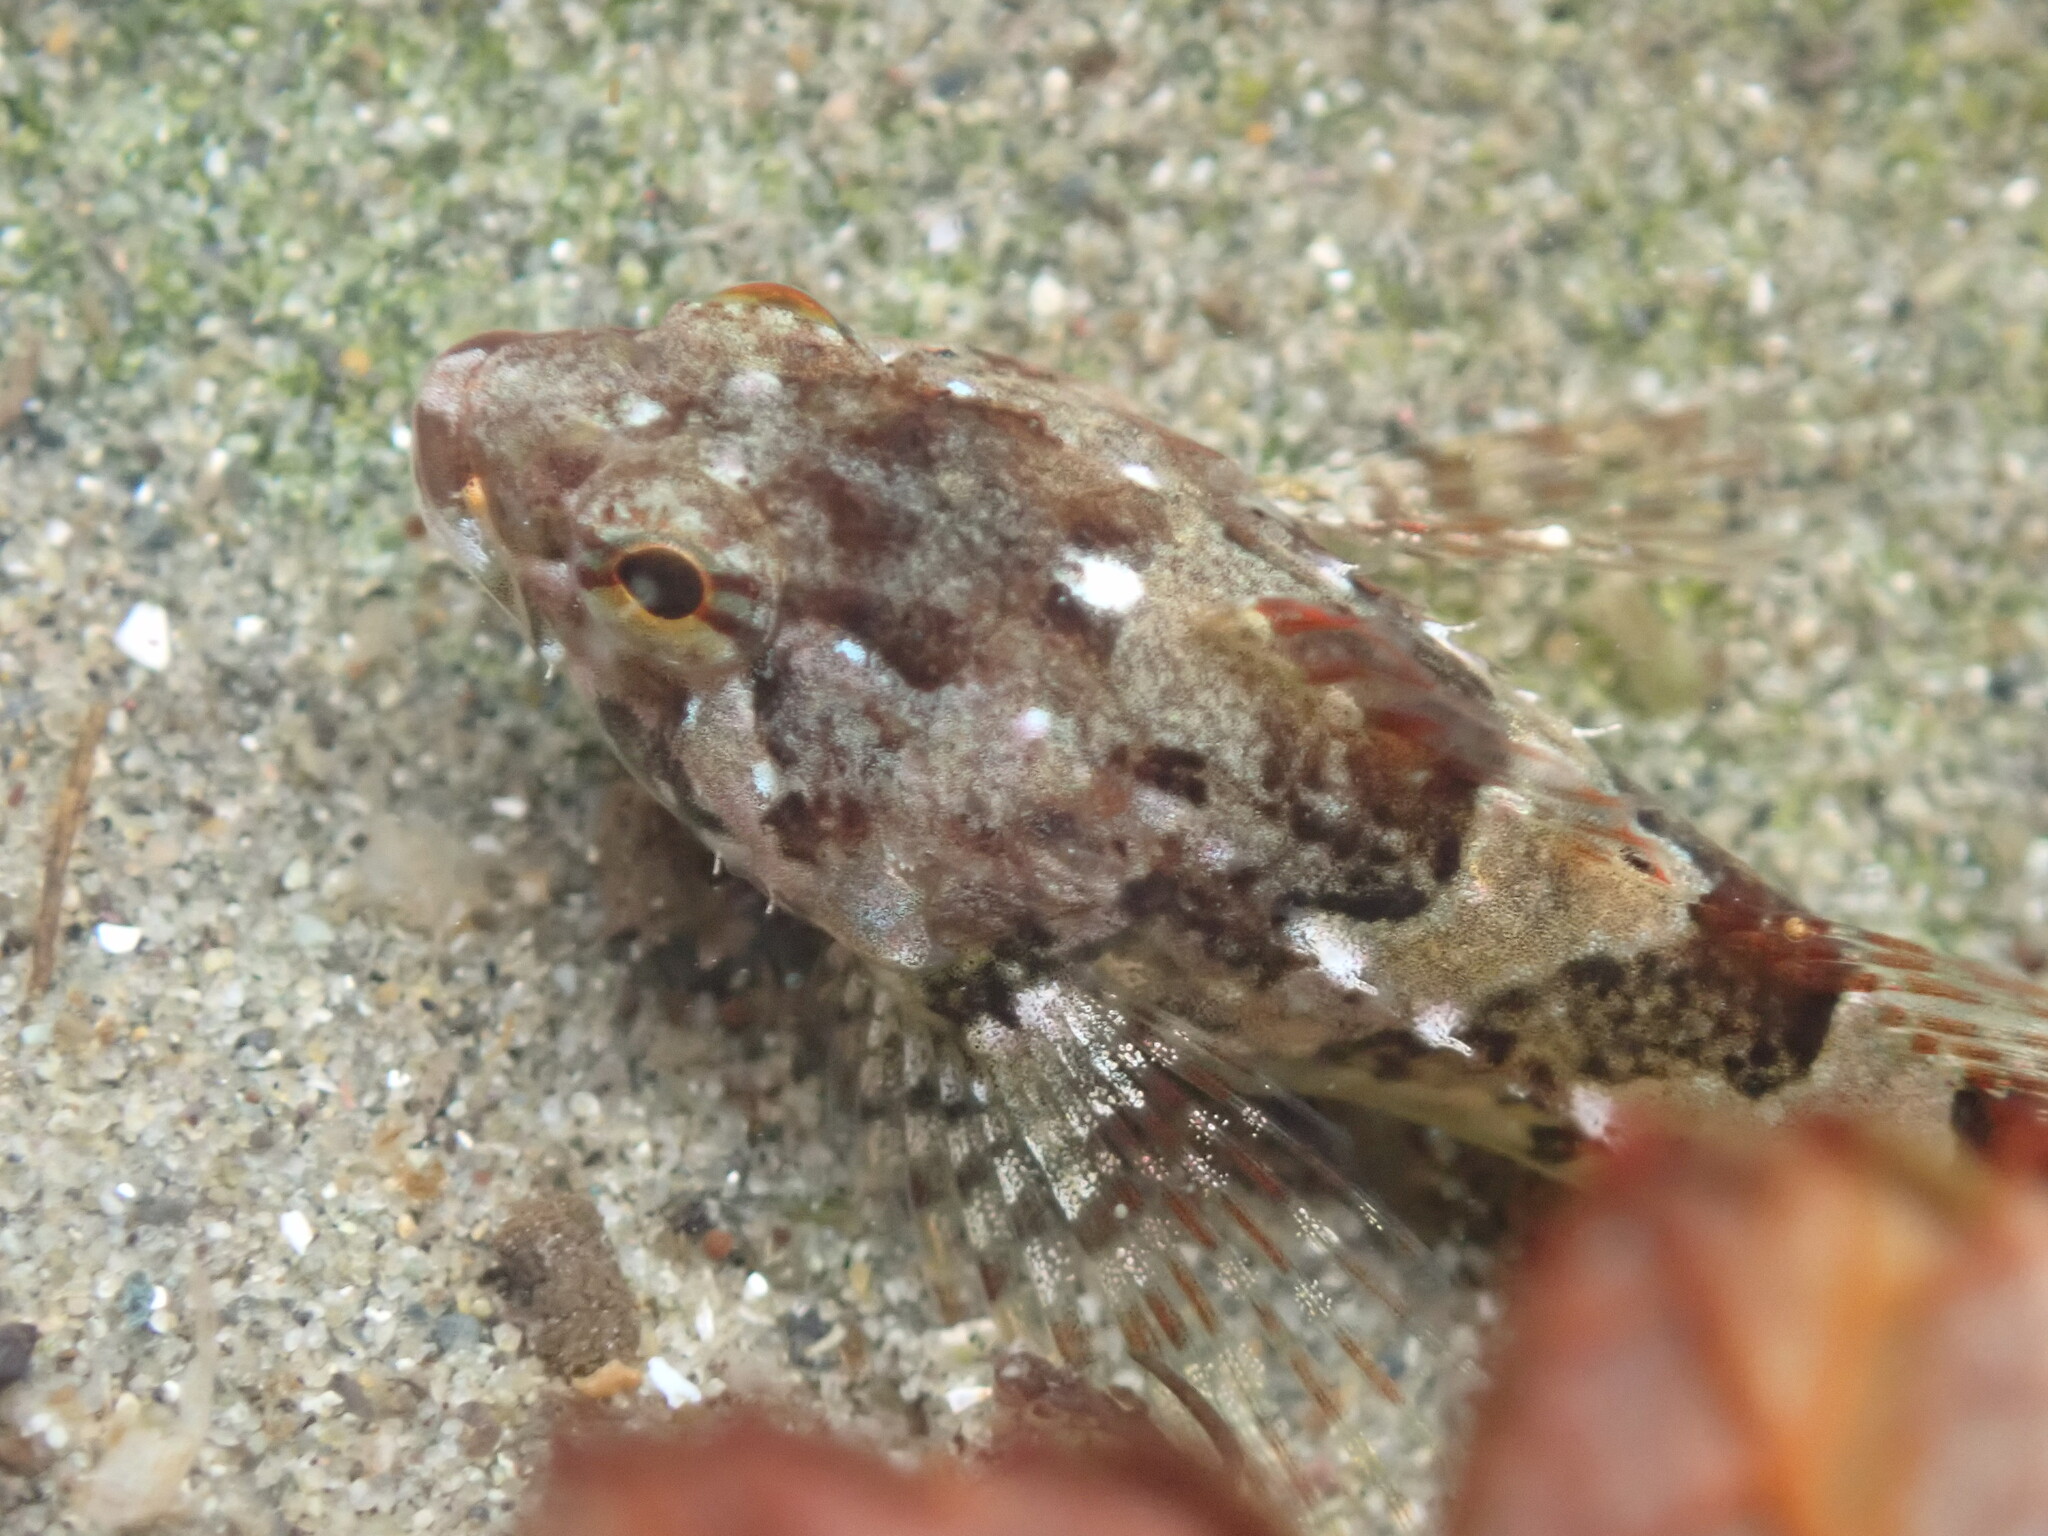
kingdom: Animalia
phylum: Chordata
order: Scorpaeniformes
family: Cottidae
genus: Oligocottus
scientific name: Oligocottus maculosus
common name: Tidepool sculpin
